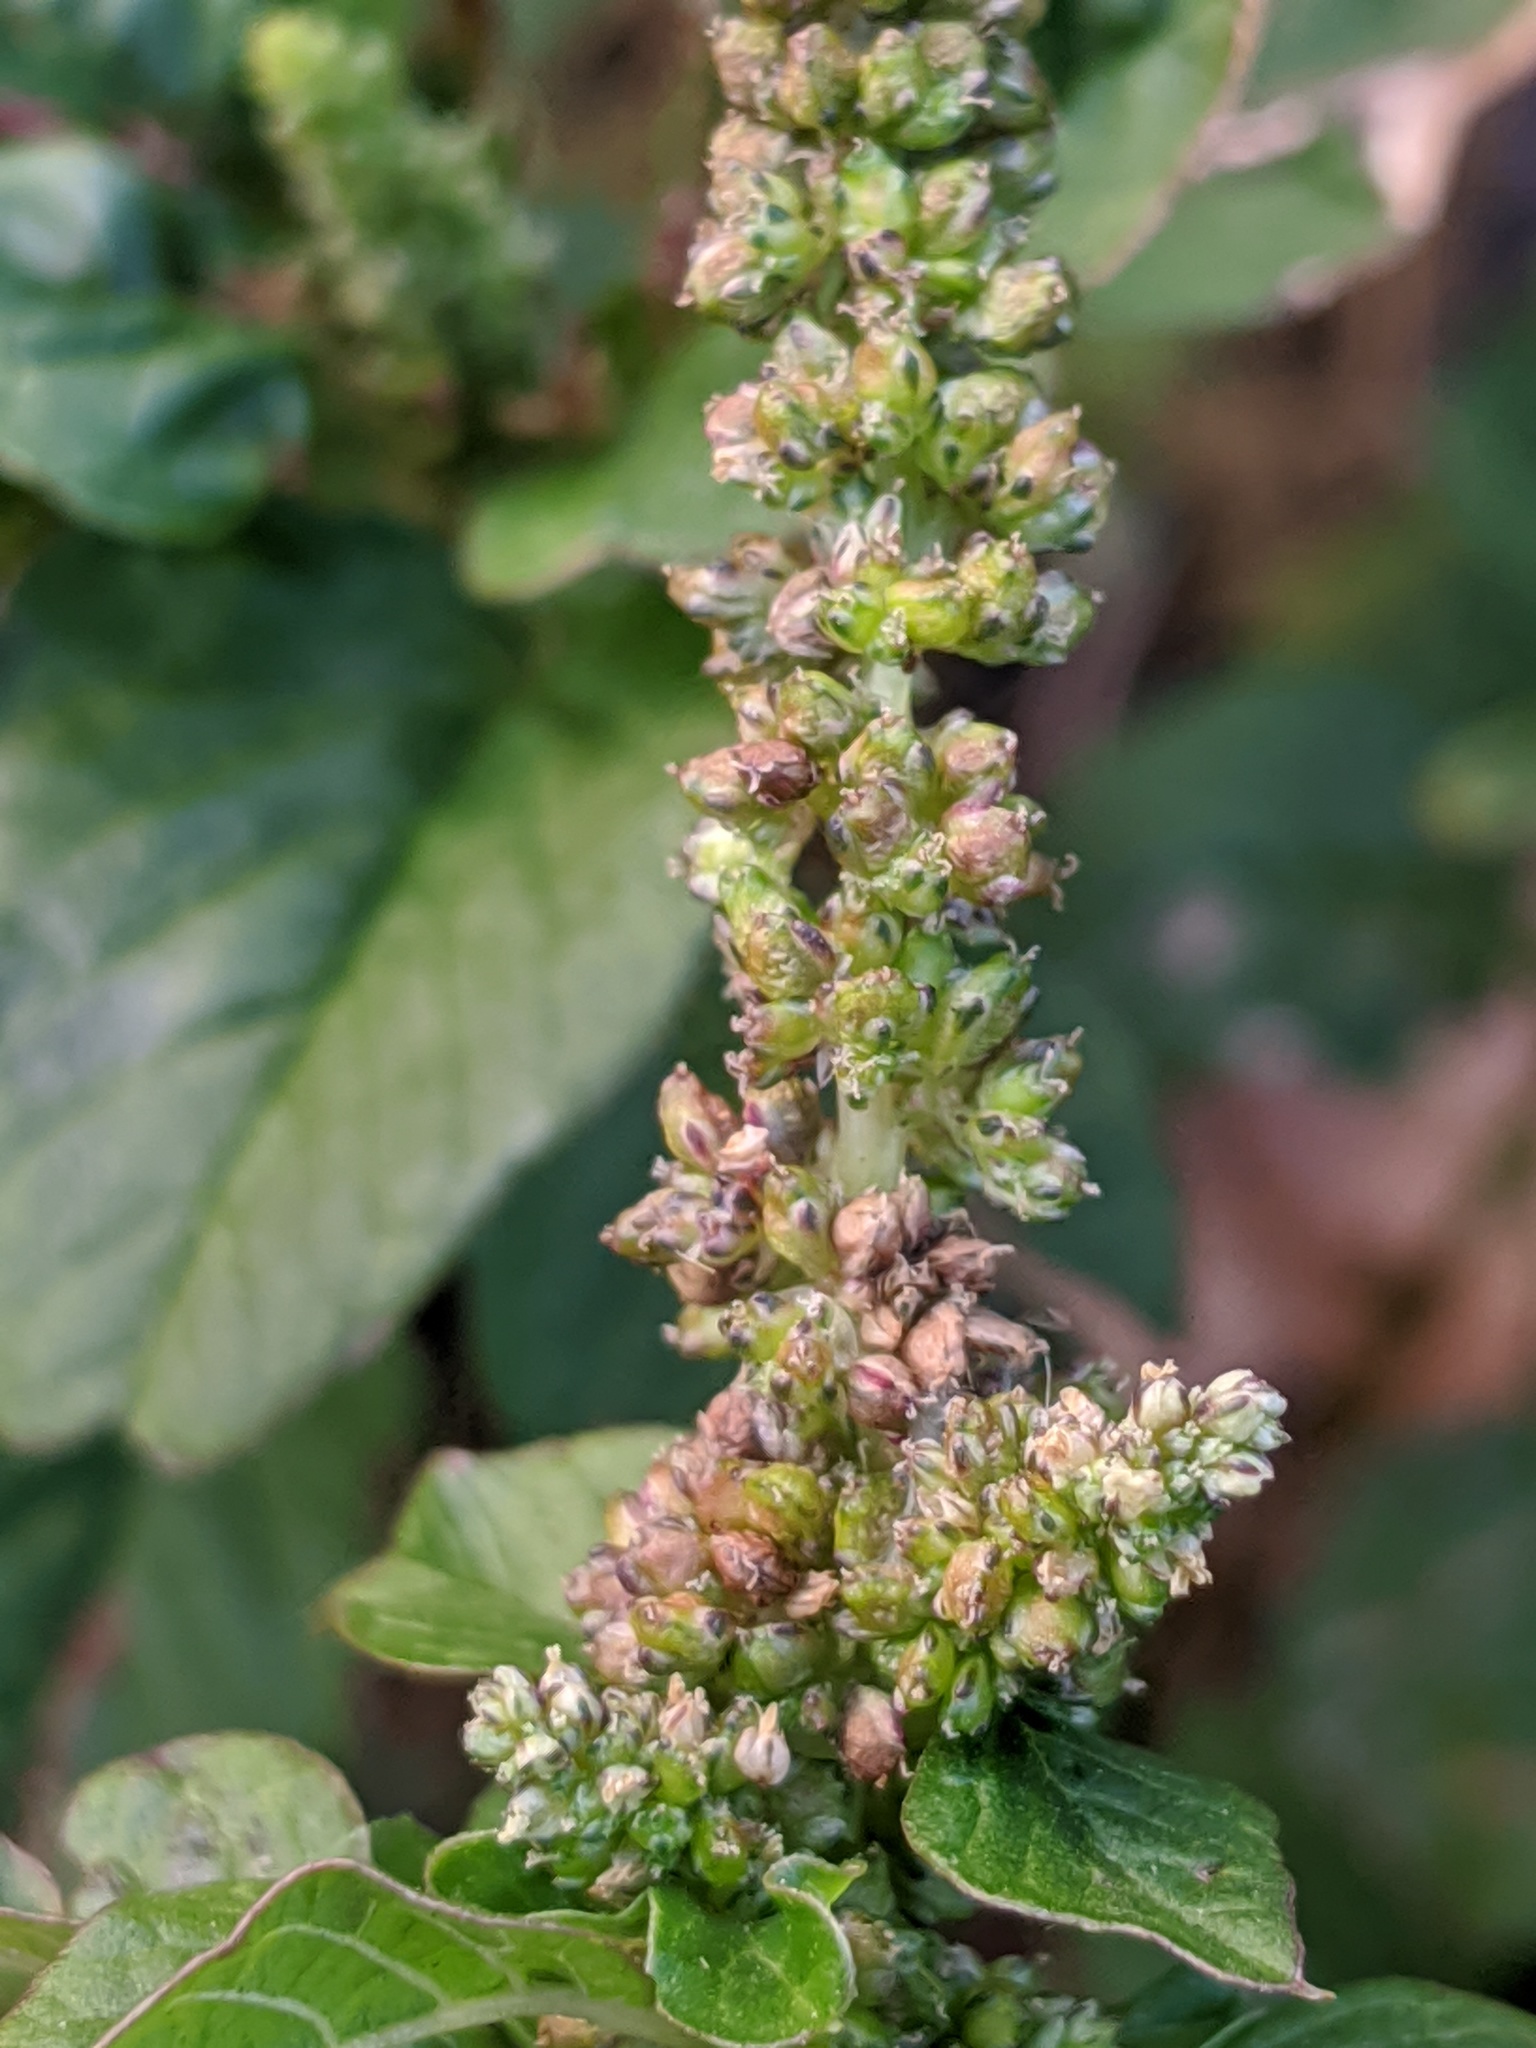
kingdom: Plantae
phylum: Tracheophyta
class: Magnoliopsida
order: Caryophyllales
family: Amaranthaceae
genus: Amaranthus
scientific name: Amaranthus retroflexus
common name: Redroot amaranth
